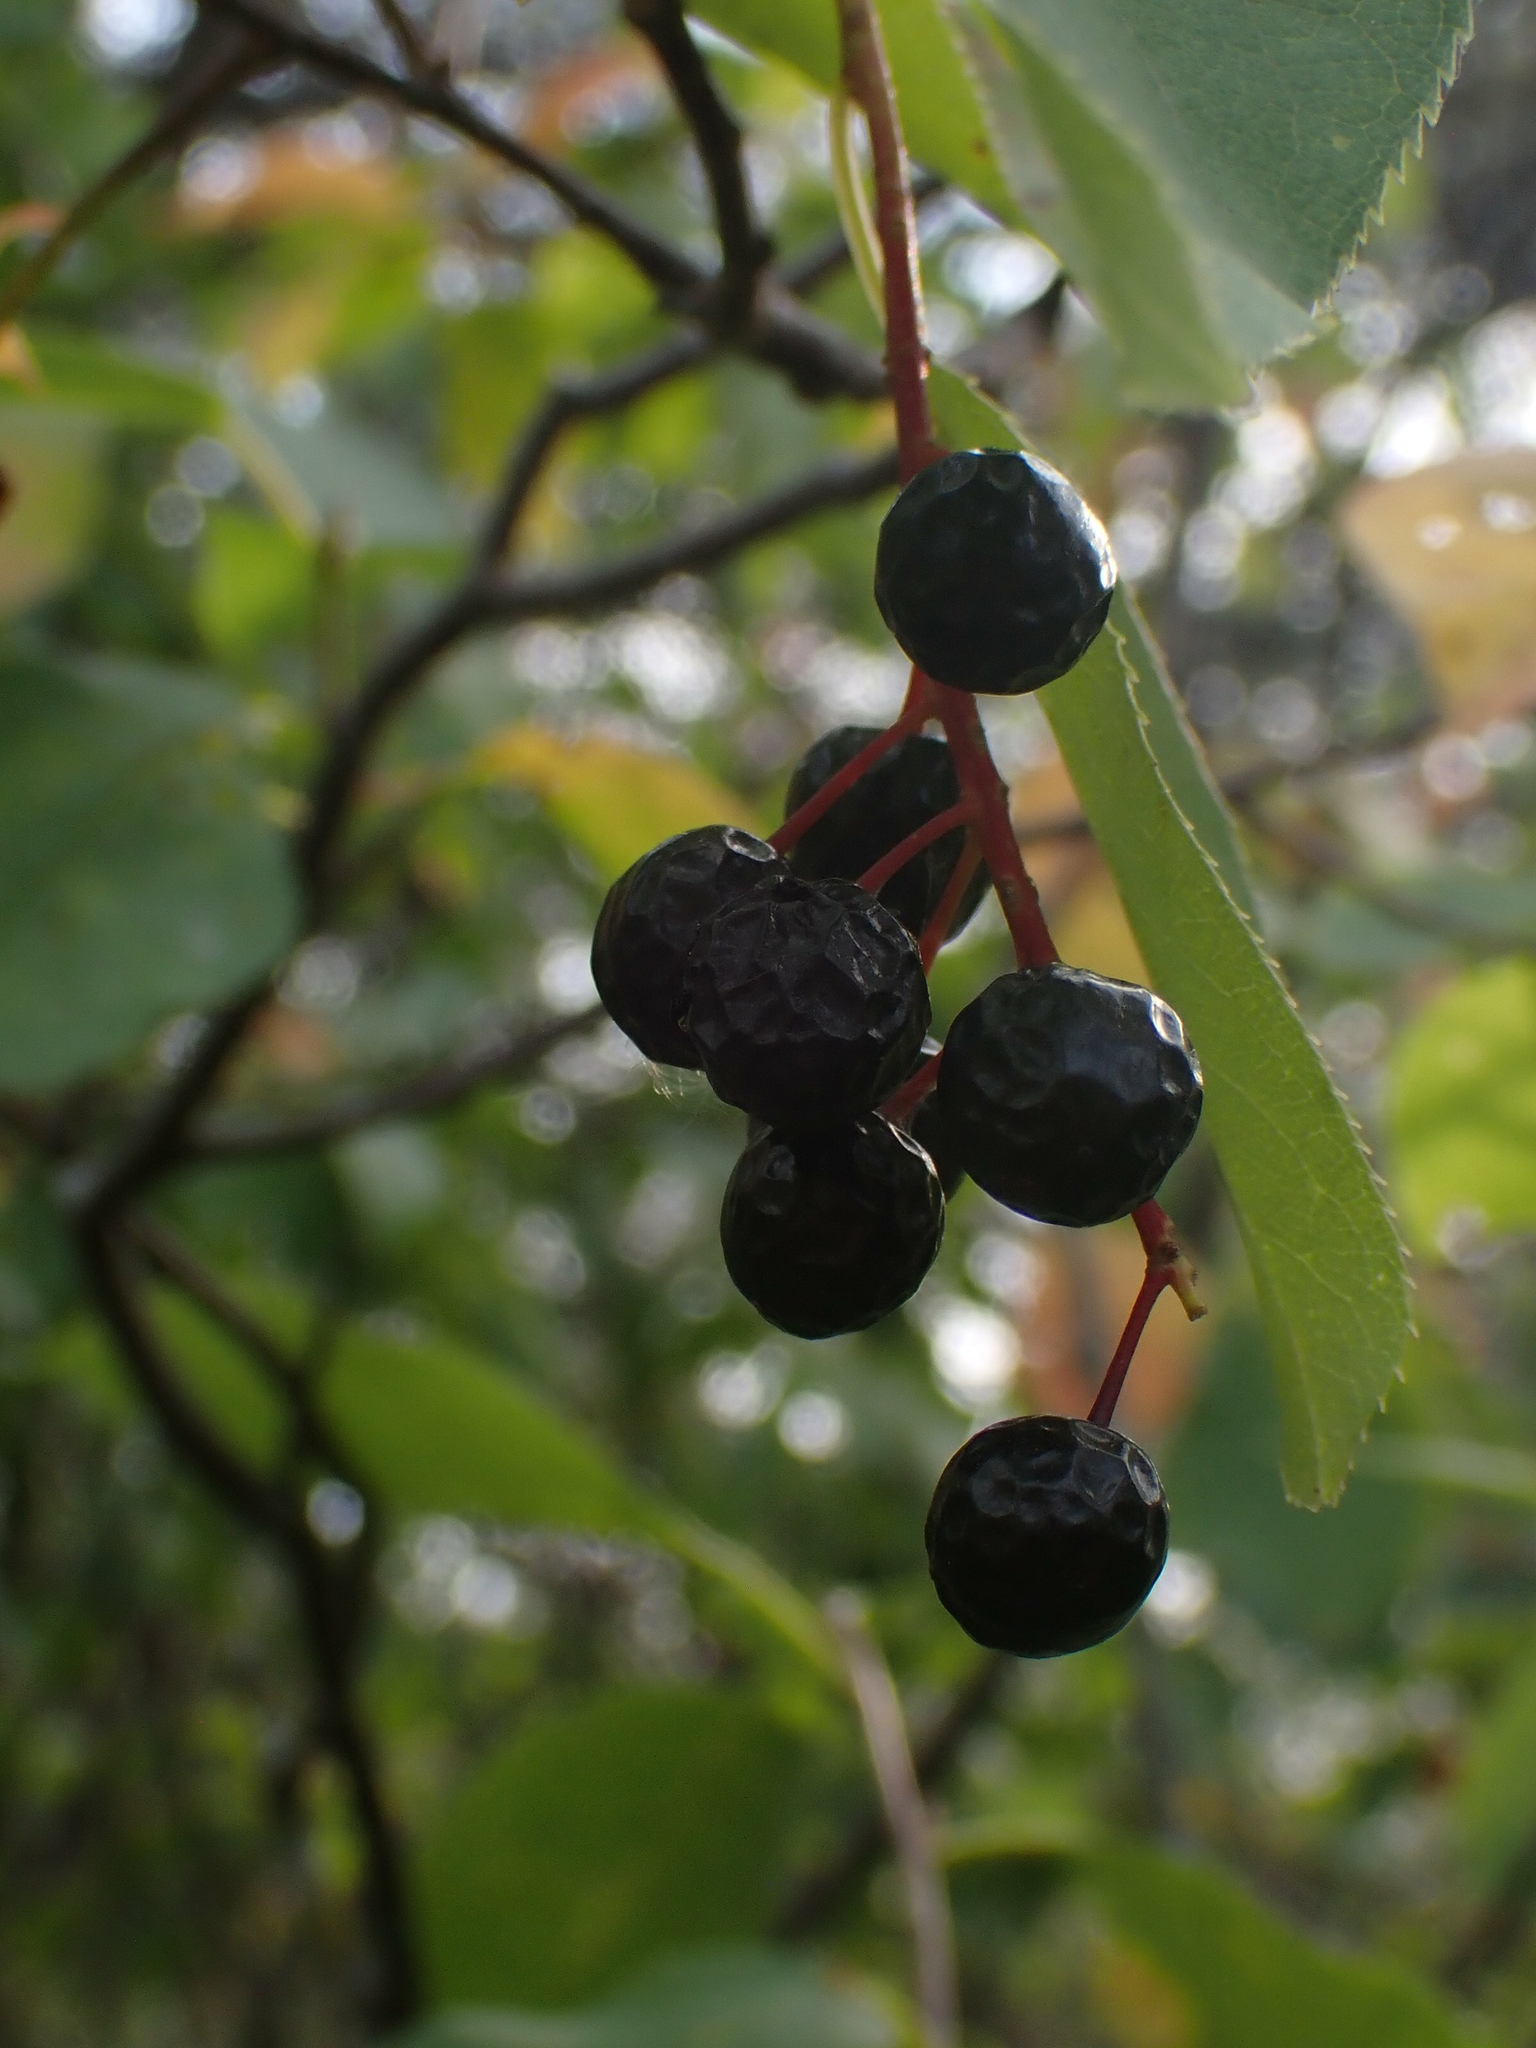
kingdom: Plantae
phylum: Tracheophyta
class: Magnoliopsida
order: Rosales
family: Rosaceae
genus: Prunus
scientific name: Prunus virginiana
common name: Chokecherry
